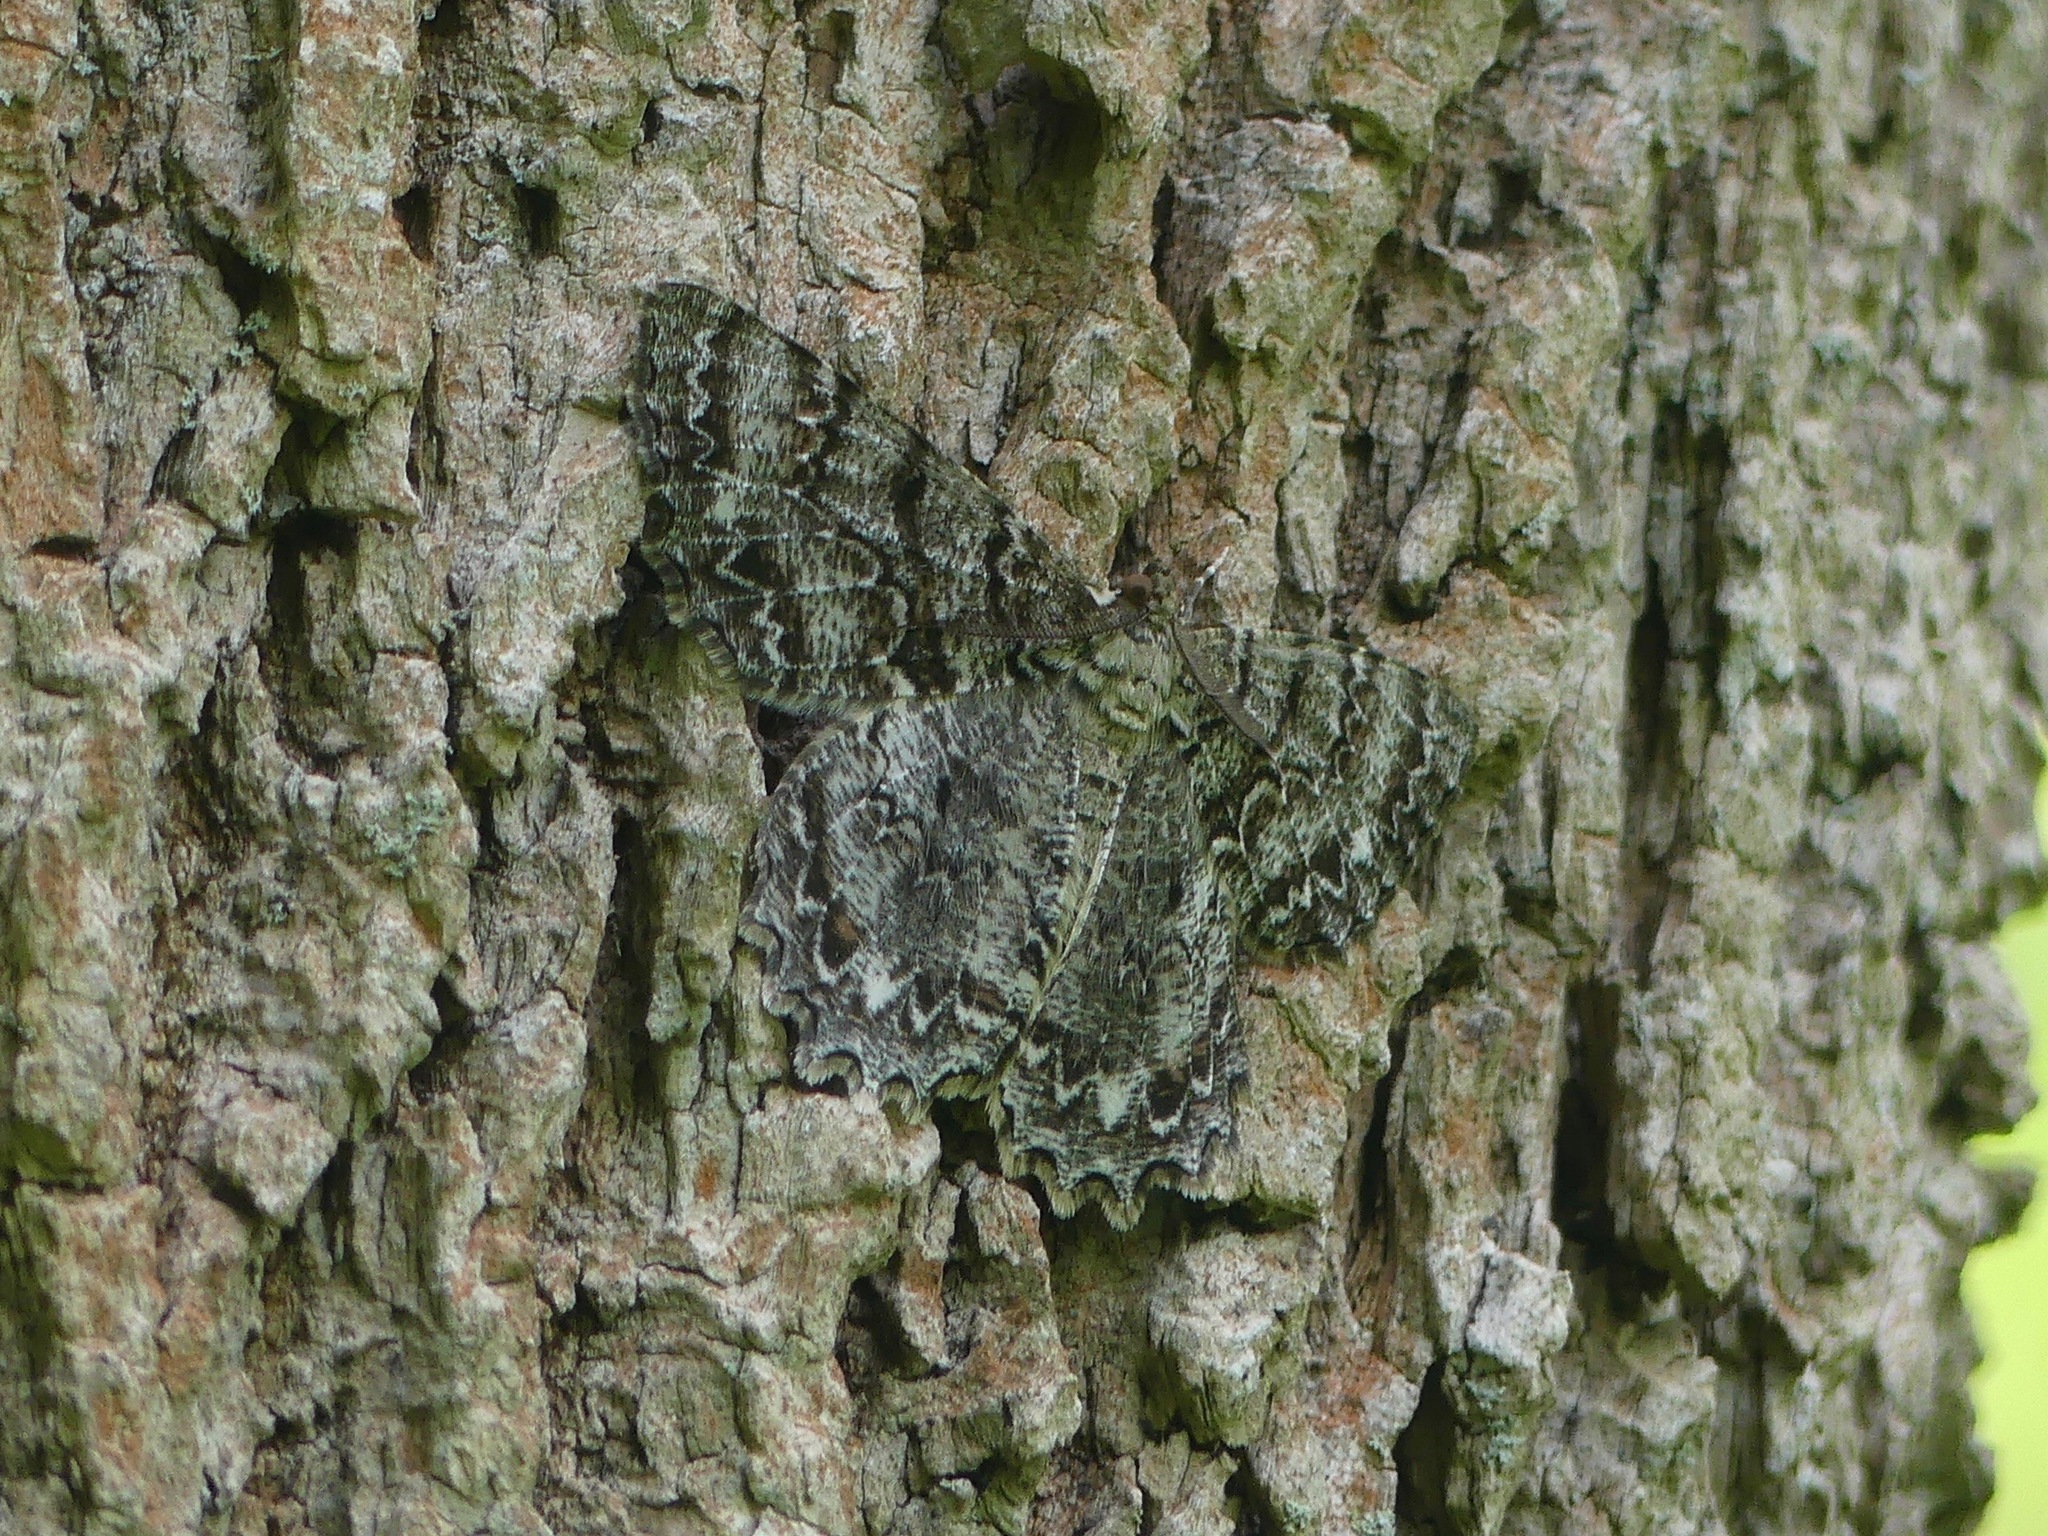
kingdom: Animalia
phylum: Arthropoda
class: Insecta
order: Lepidoptera
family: Geometridae
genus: Epimecis
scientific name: Epimecis hortaria
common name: Tulip-tree beauty
